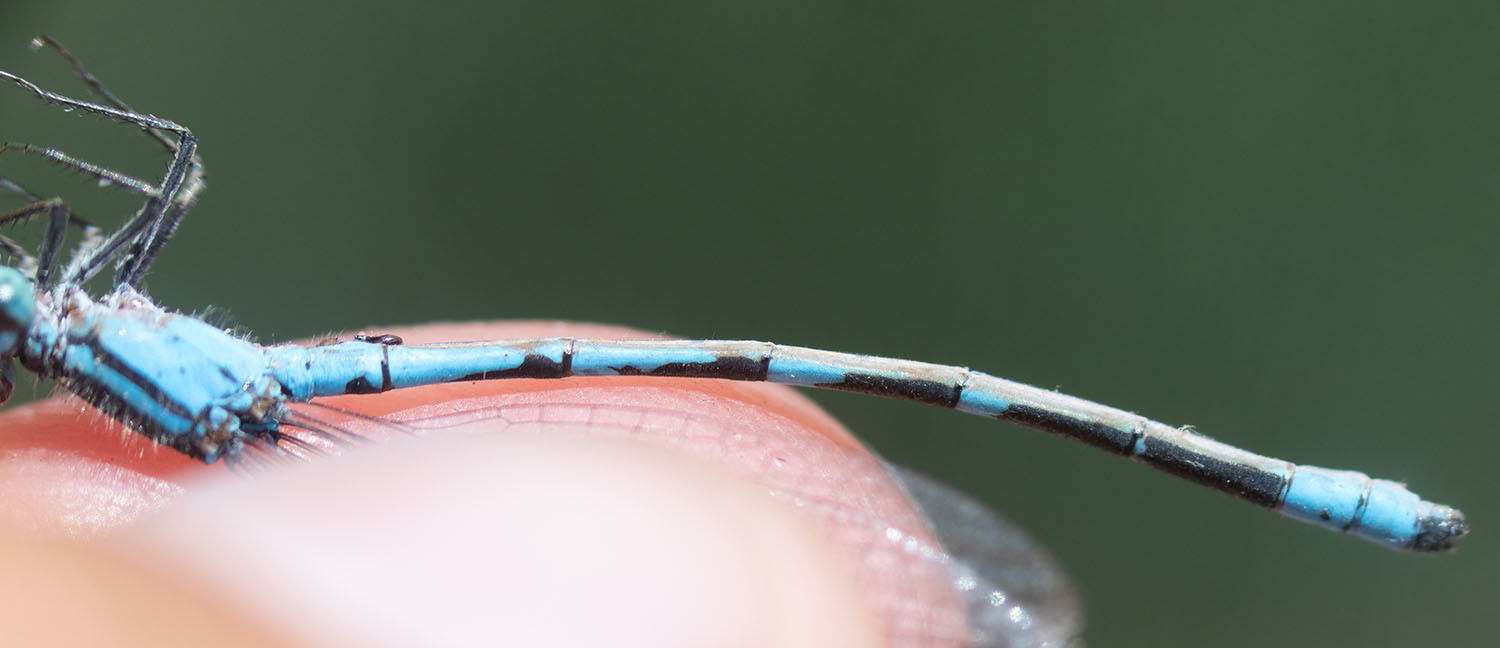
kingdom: Animalia
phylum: Arthropoda
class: Insecta
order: Odonata
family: Coenagrionidae
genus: Enallagma
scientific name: Enallagma carunculatum
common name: Tule bluet
